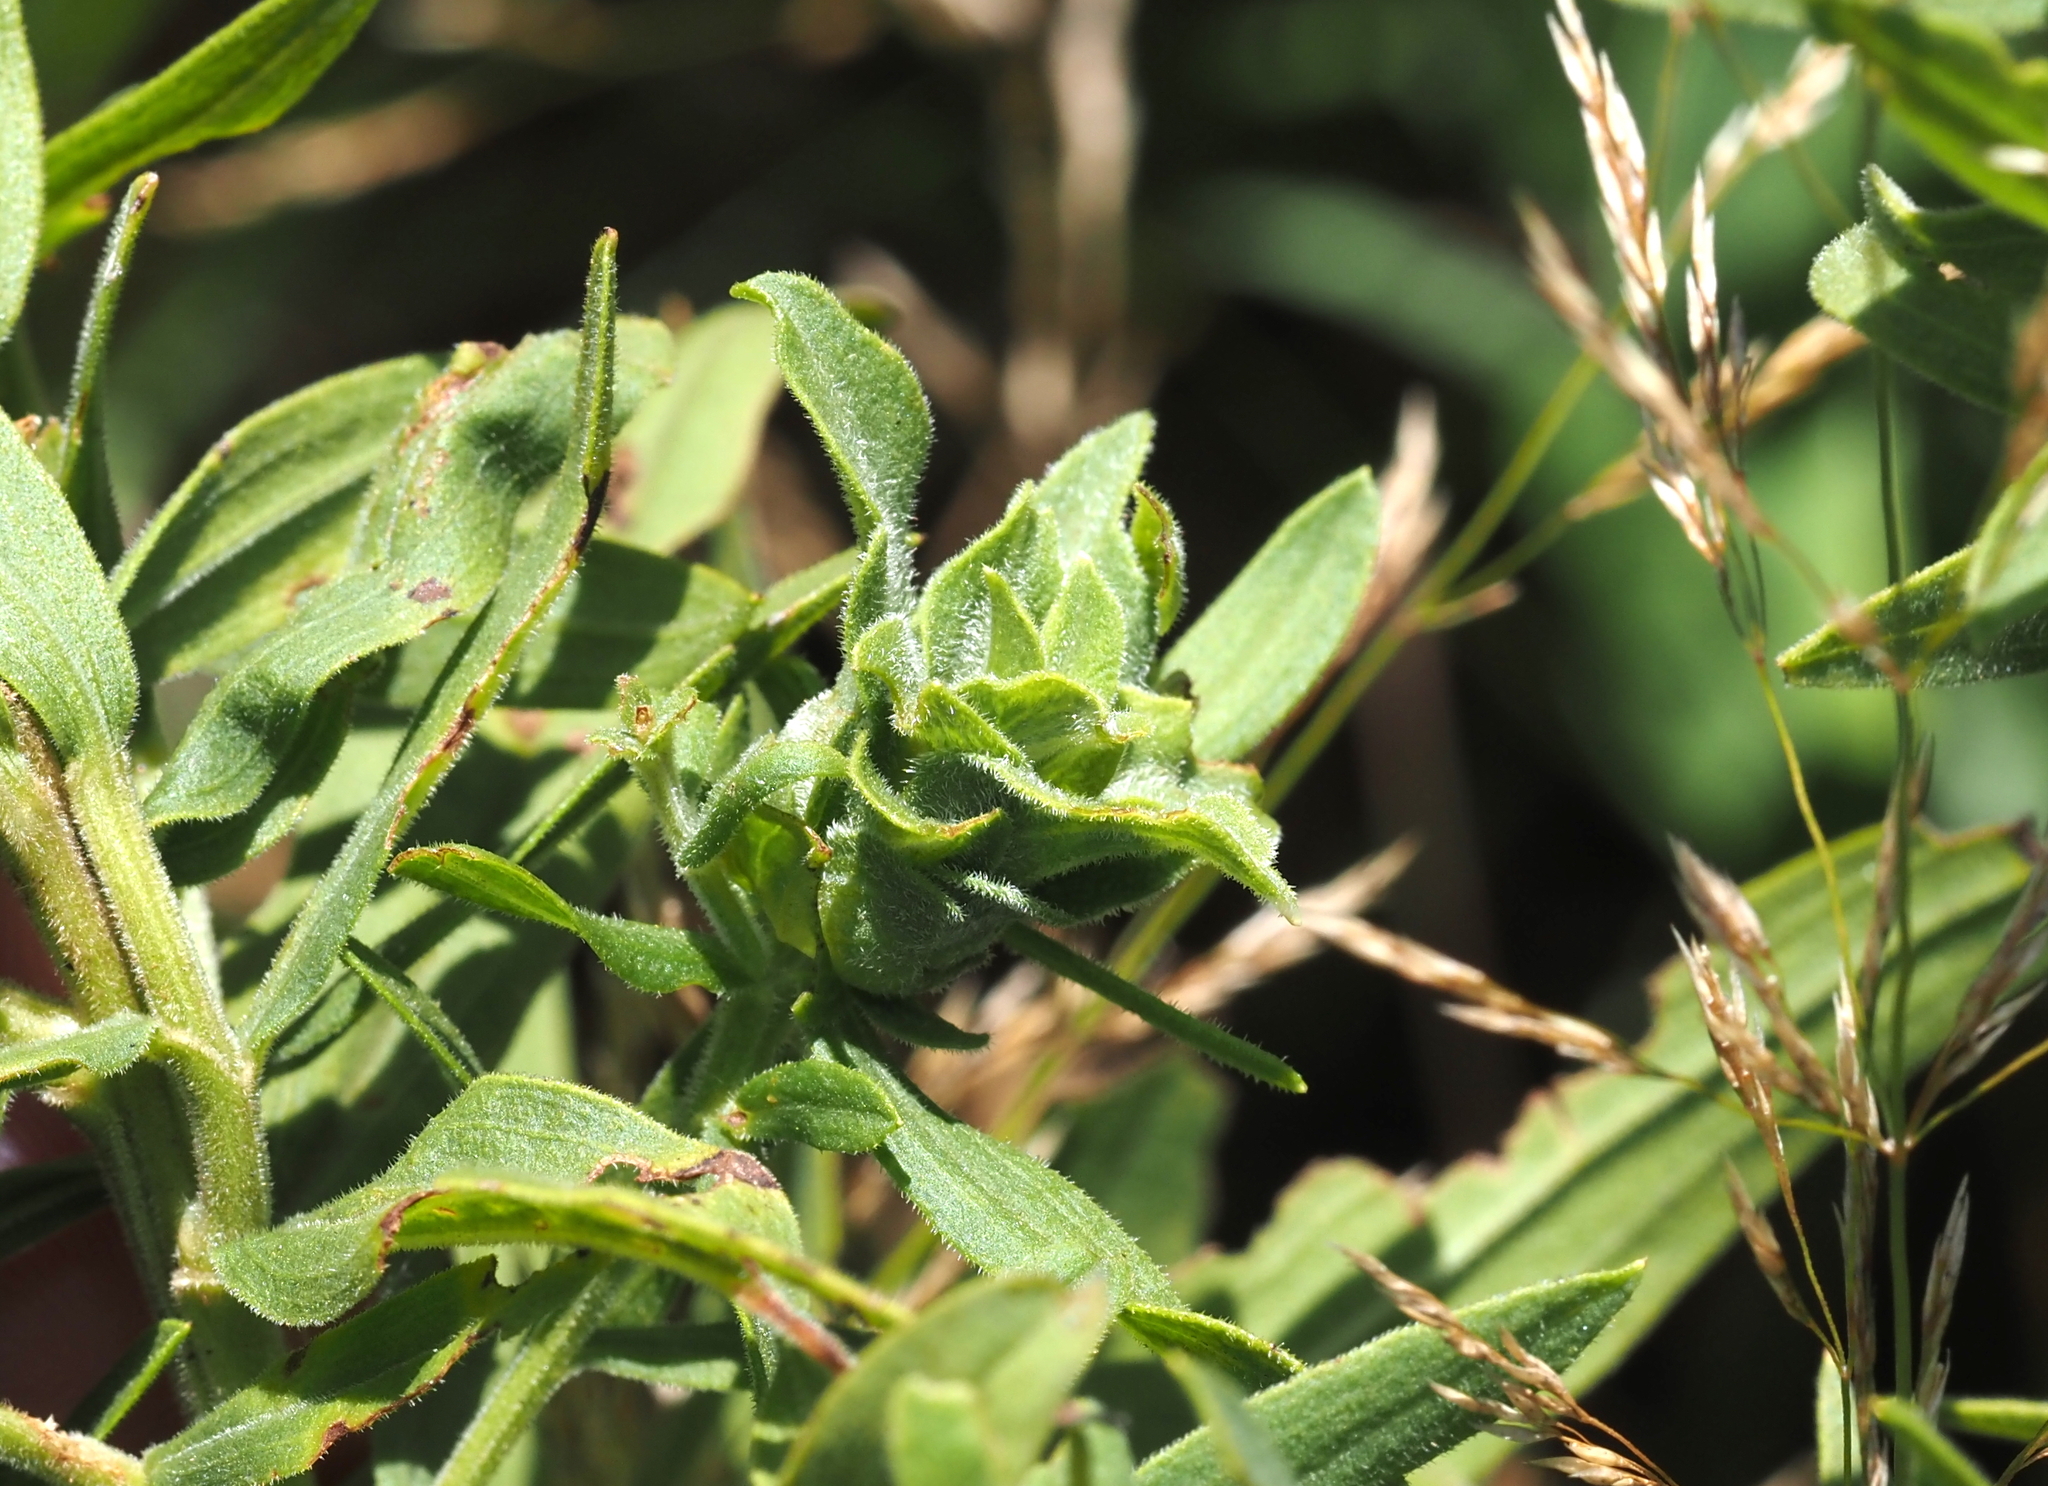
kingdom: Animalia
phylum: Arthropoda
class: Insecta
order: Diptera
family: Cecidomyiidae
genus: Asphondylia
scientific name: Asphondylia pseudorosa
